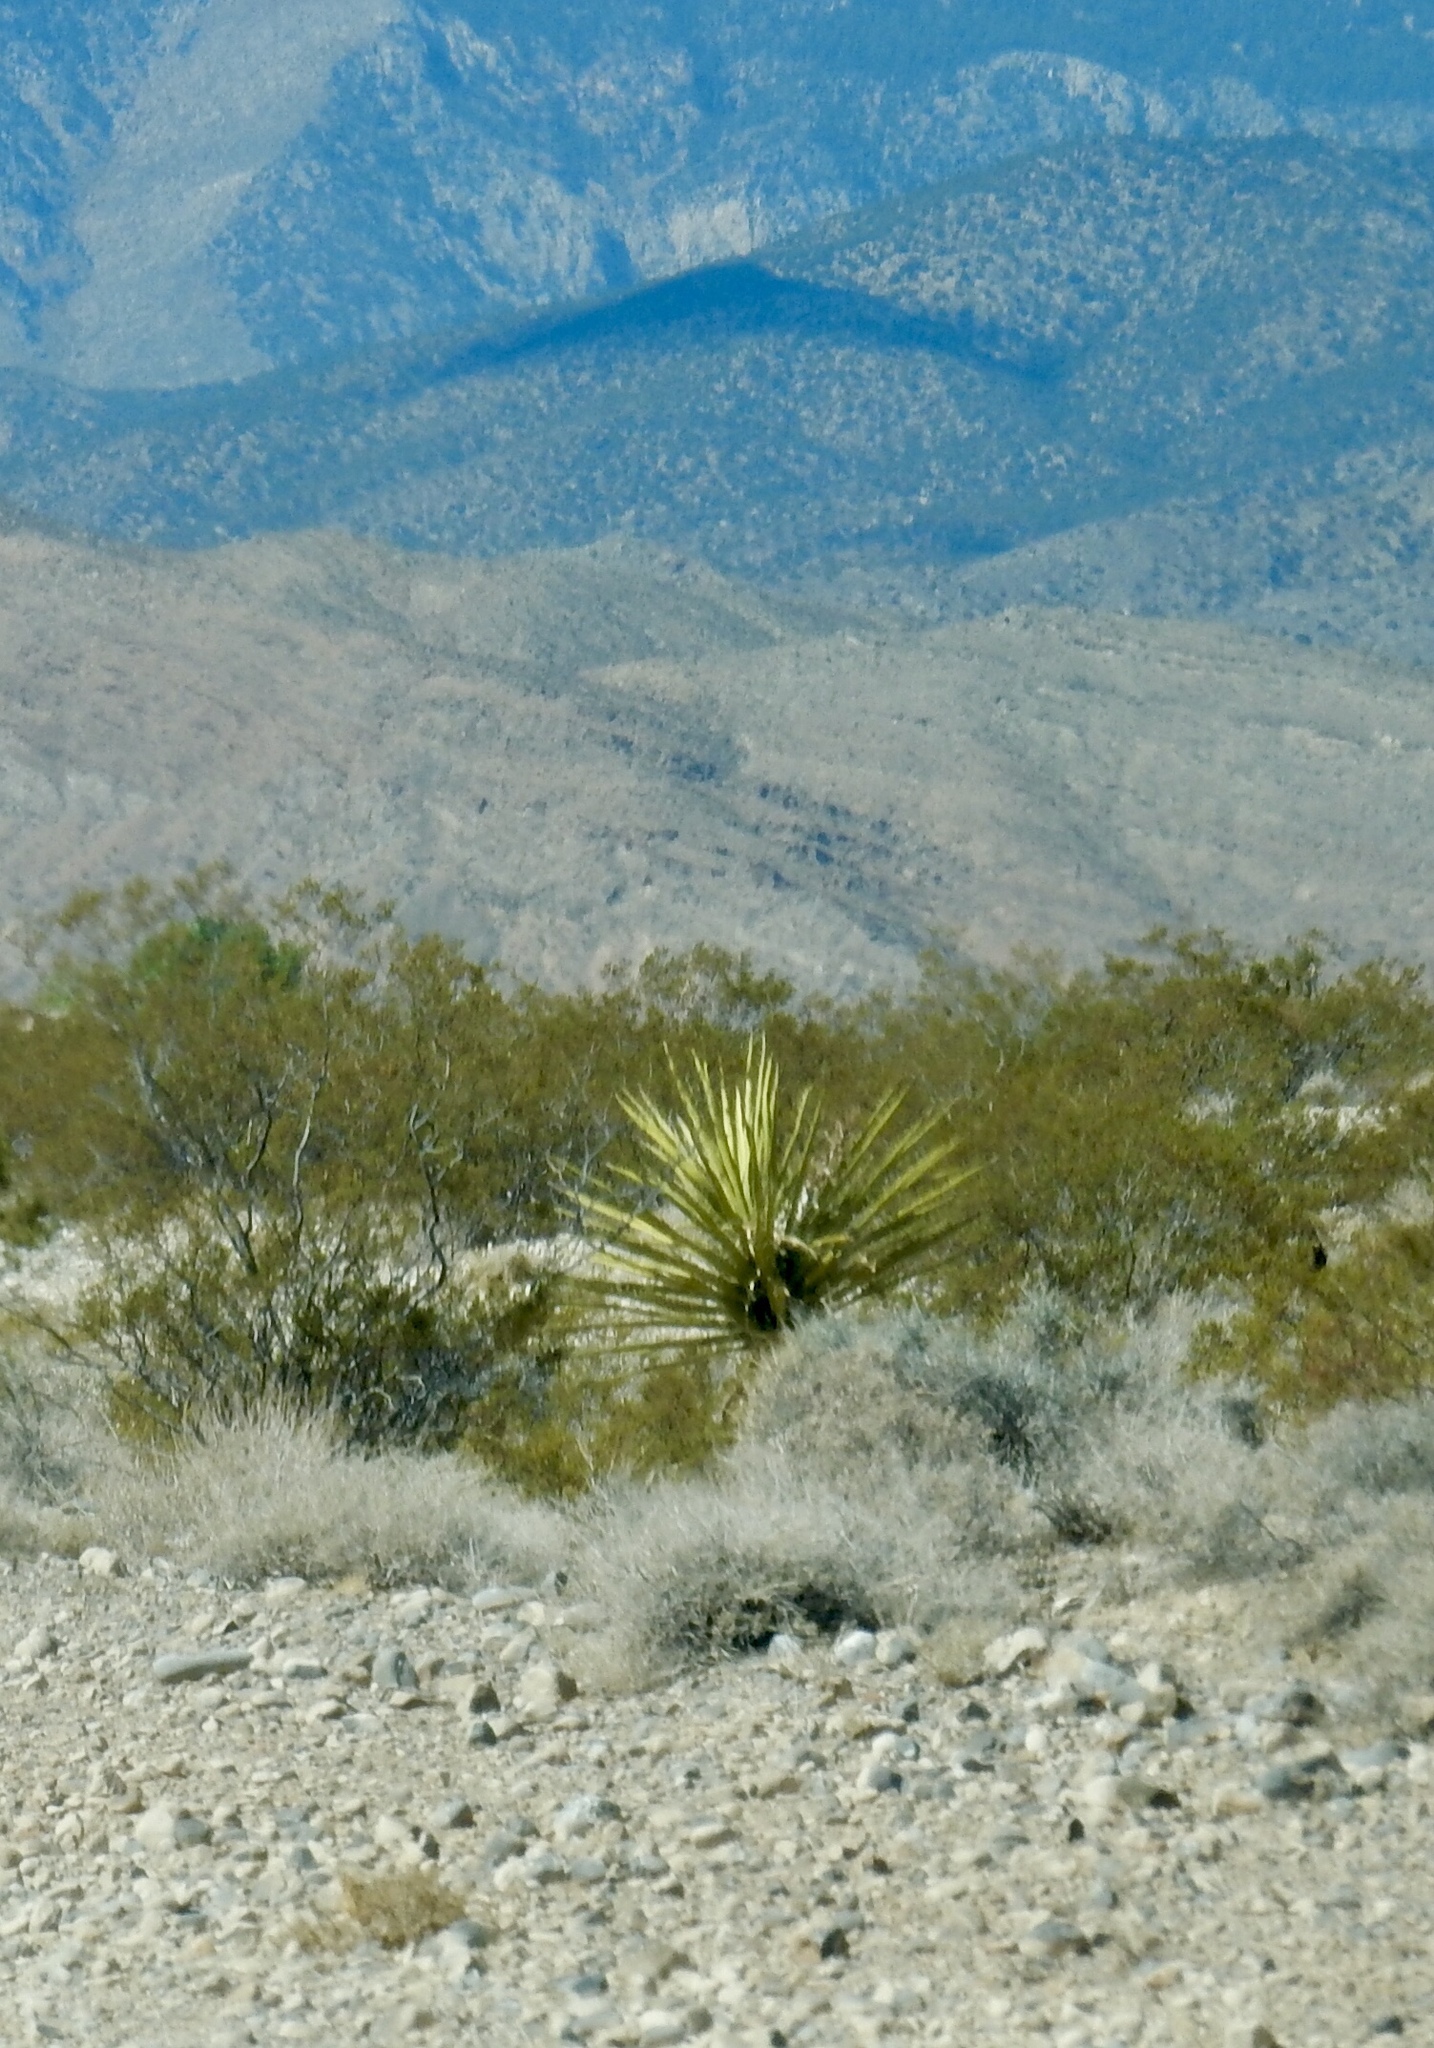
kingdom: Plantae
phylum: Tracheophyta
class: Liliopsida
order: Asparagales
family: Asparagaceae
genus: Yucca
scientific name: Yucca schidigera
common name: Mojave yucca
